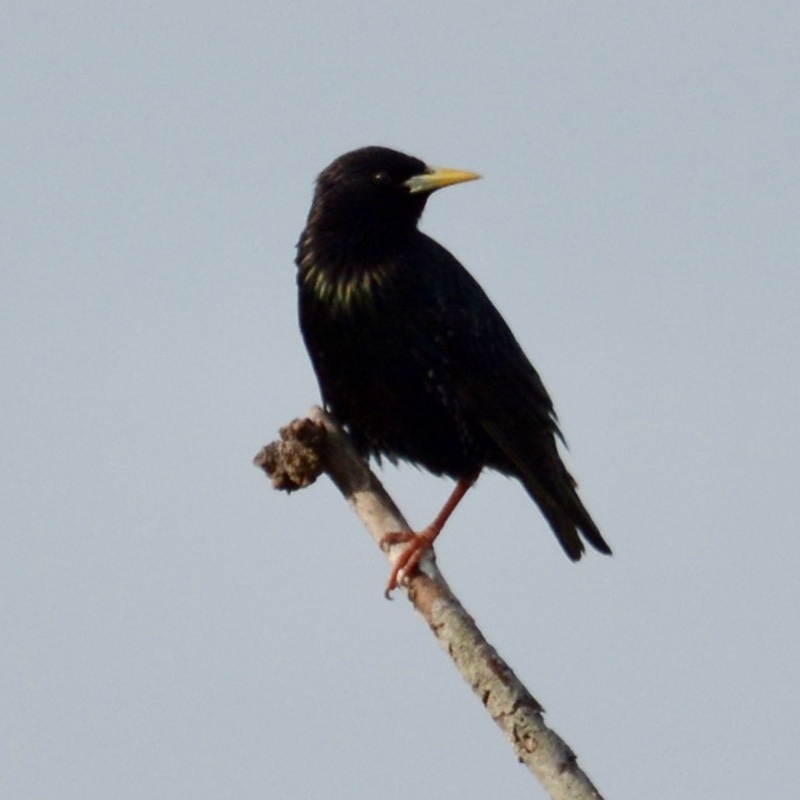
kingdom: Animalia
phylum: Chordata
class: Aves
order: Passeriformes
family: Sturnidae
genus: Sturnus
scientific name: Sturnus vulgaris
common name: Common starling
